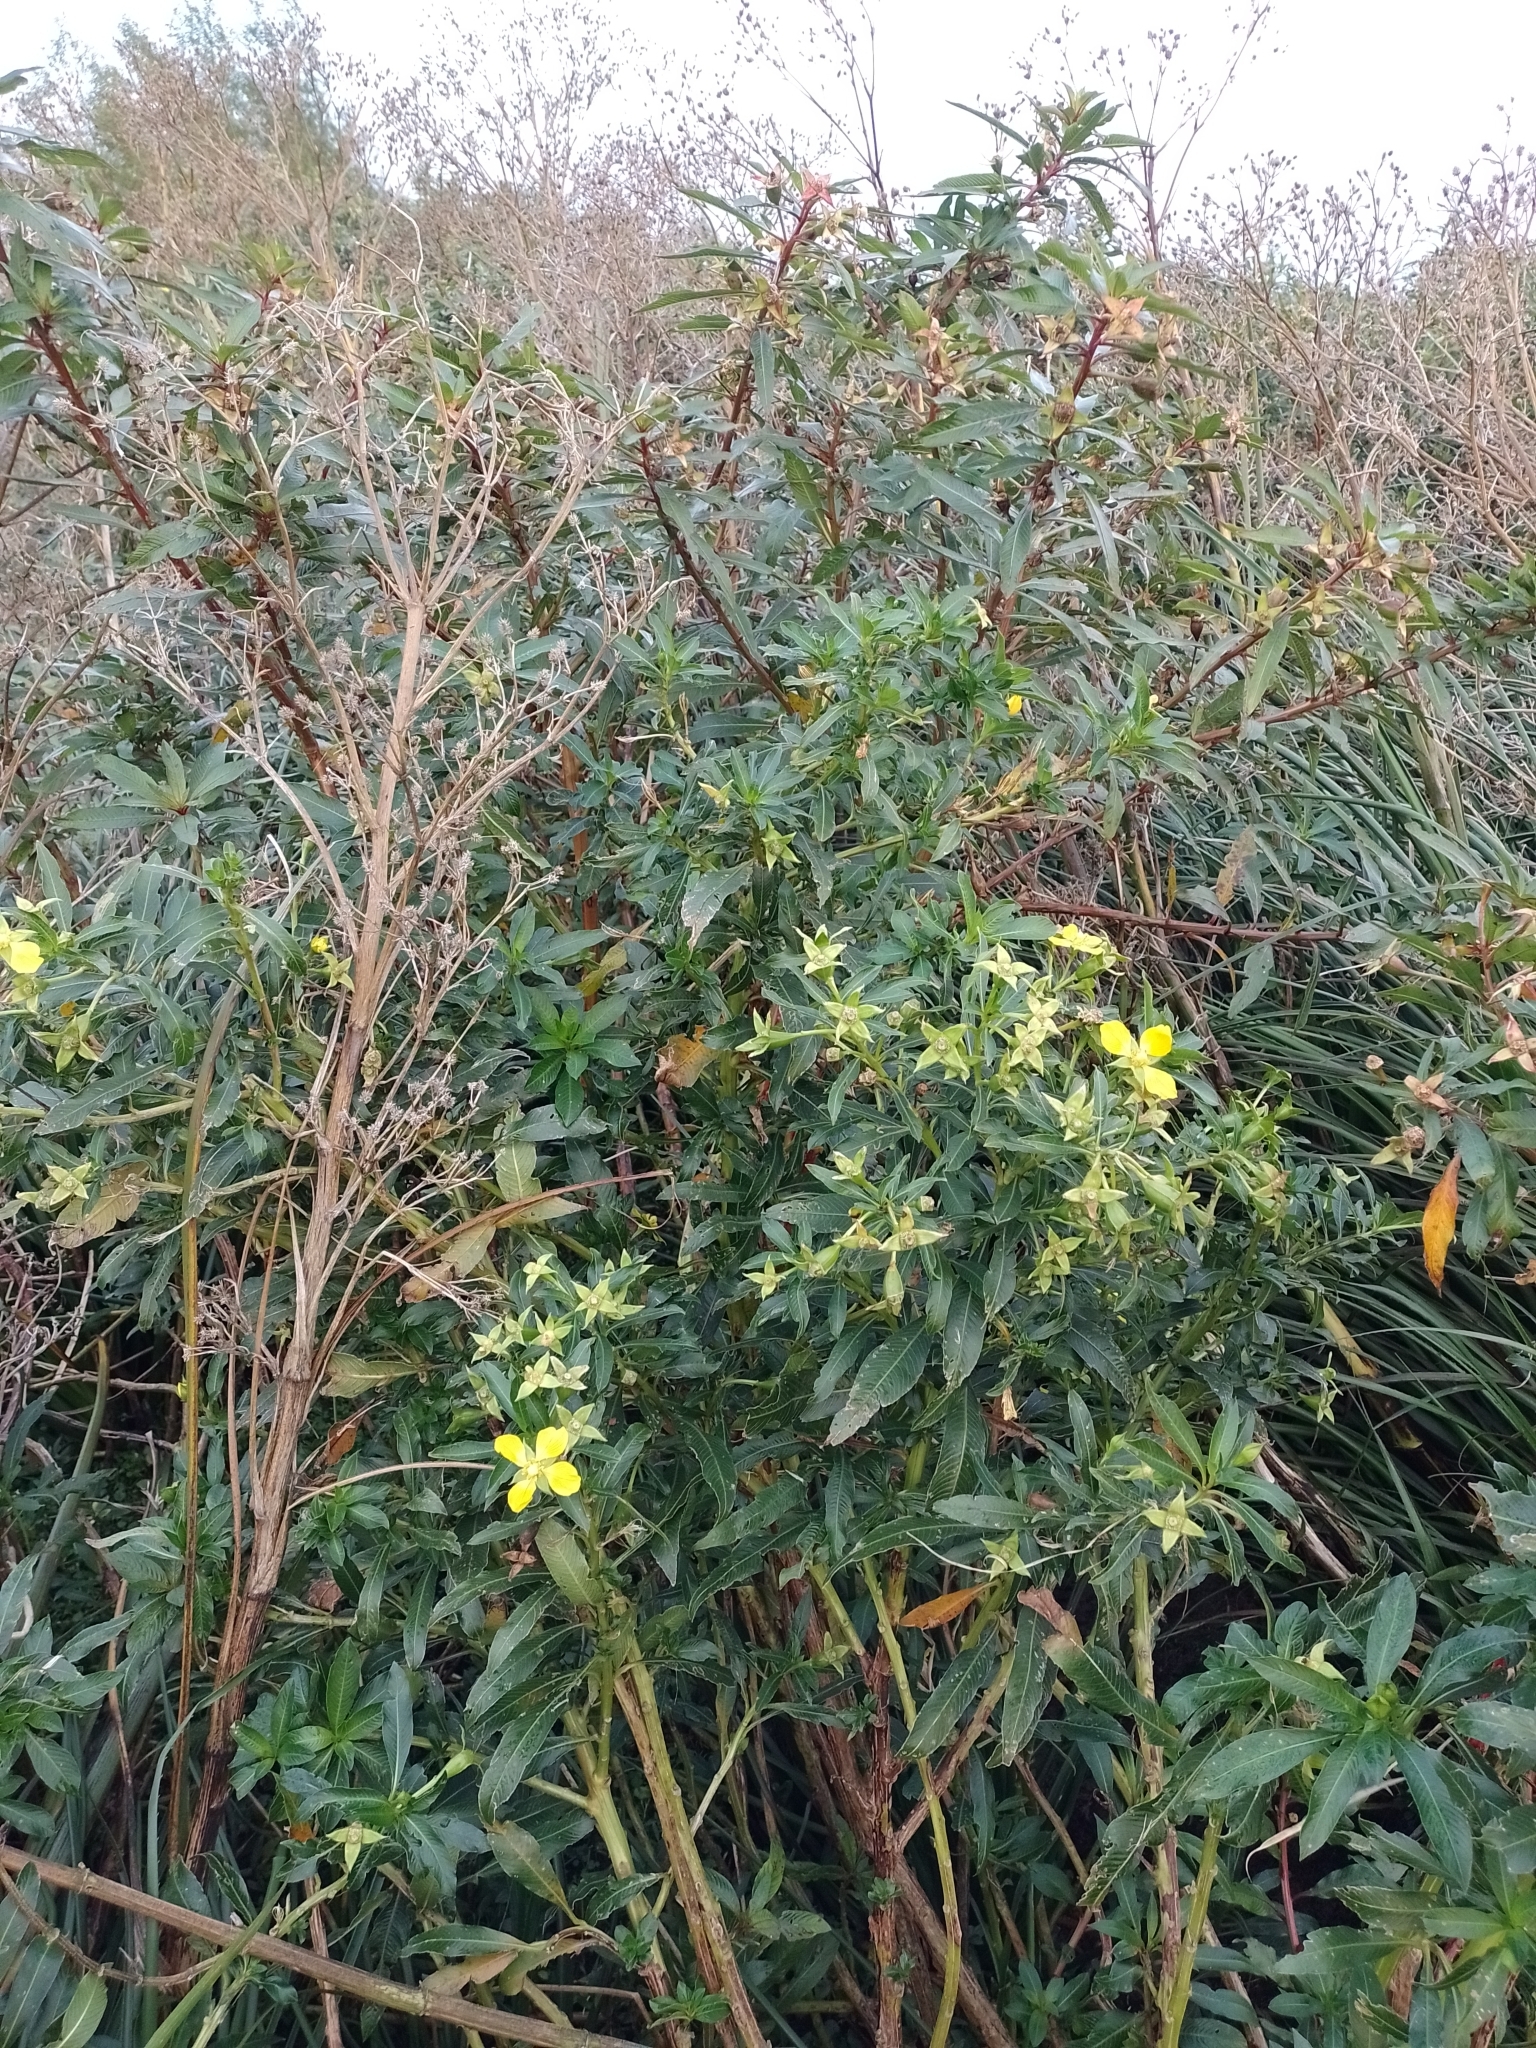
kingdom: Plantae
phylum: Tracheophyta
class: Magnoliopsida
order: Myrtales
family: Onagraceae
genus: Ludwigia
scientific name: Ludwigia elegans
